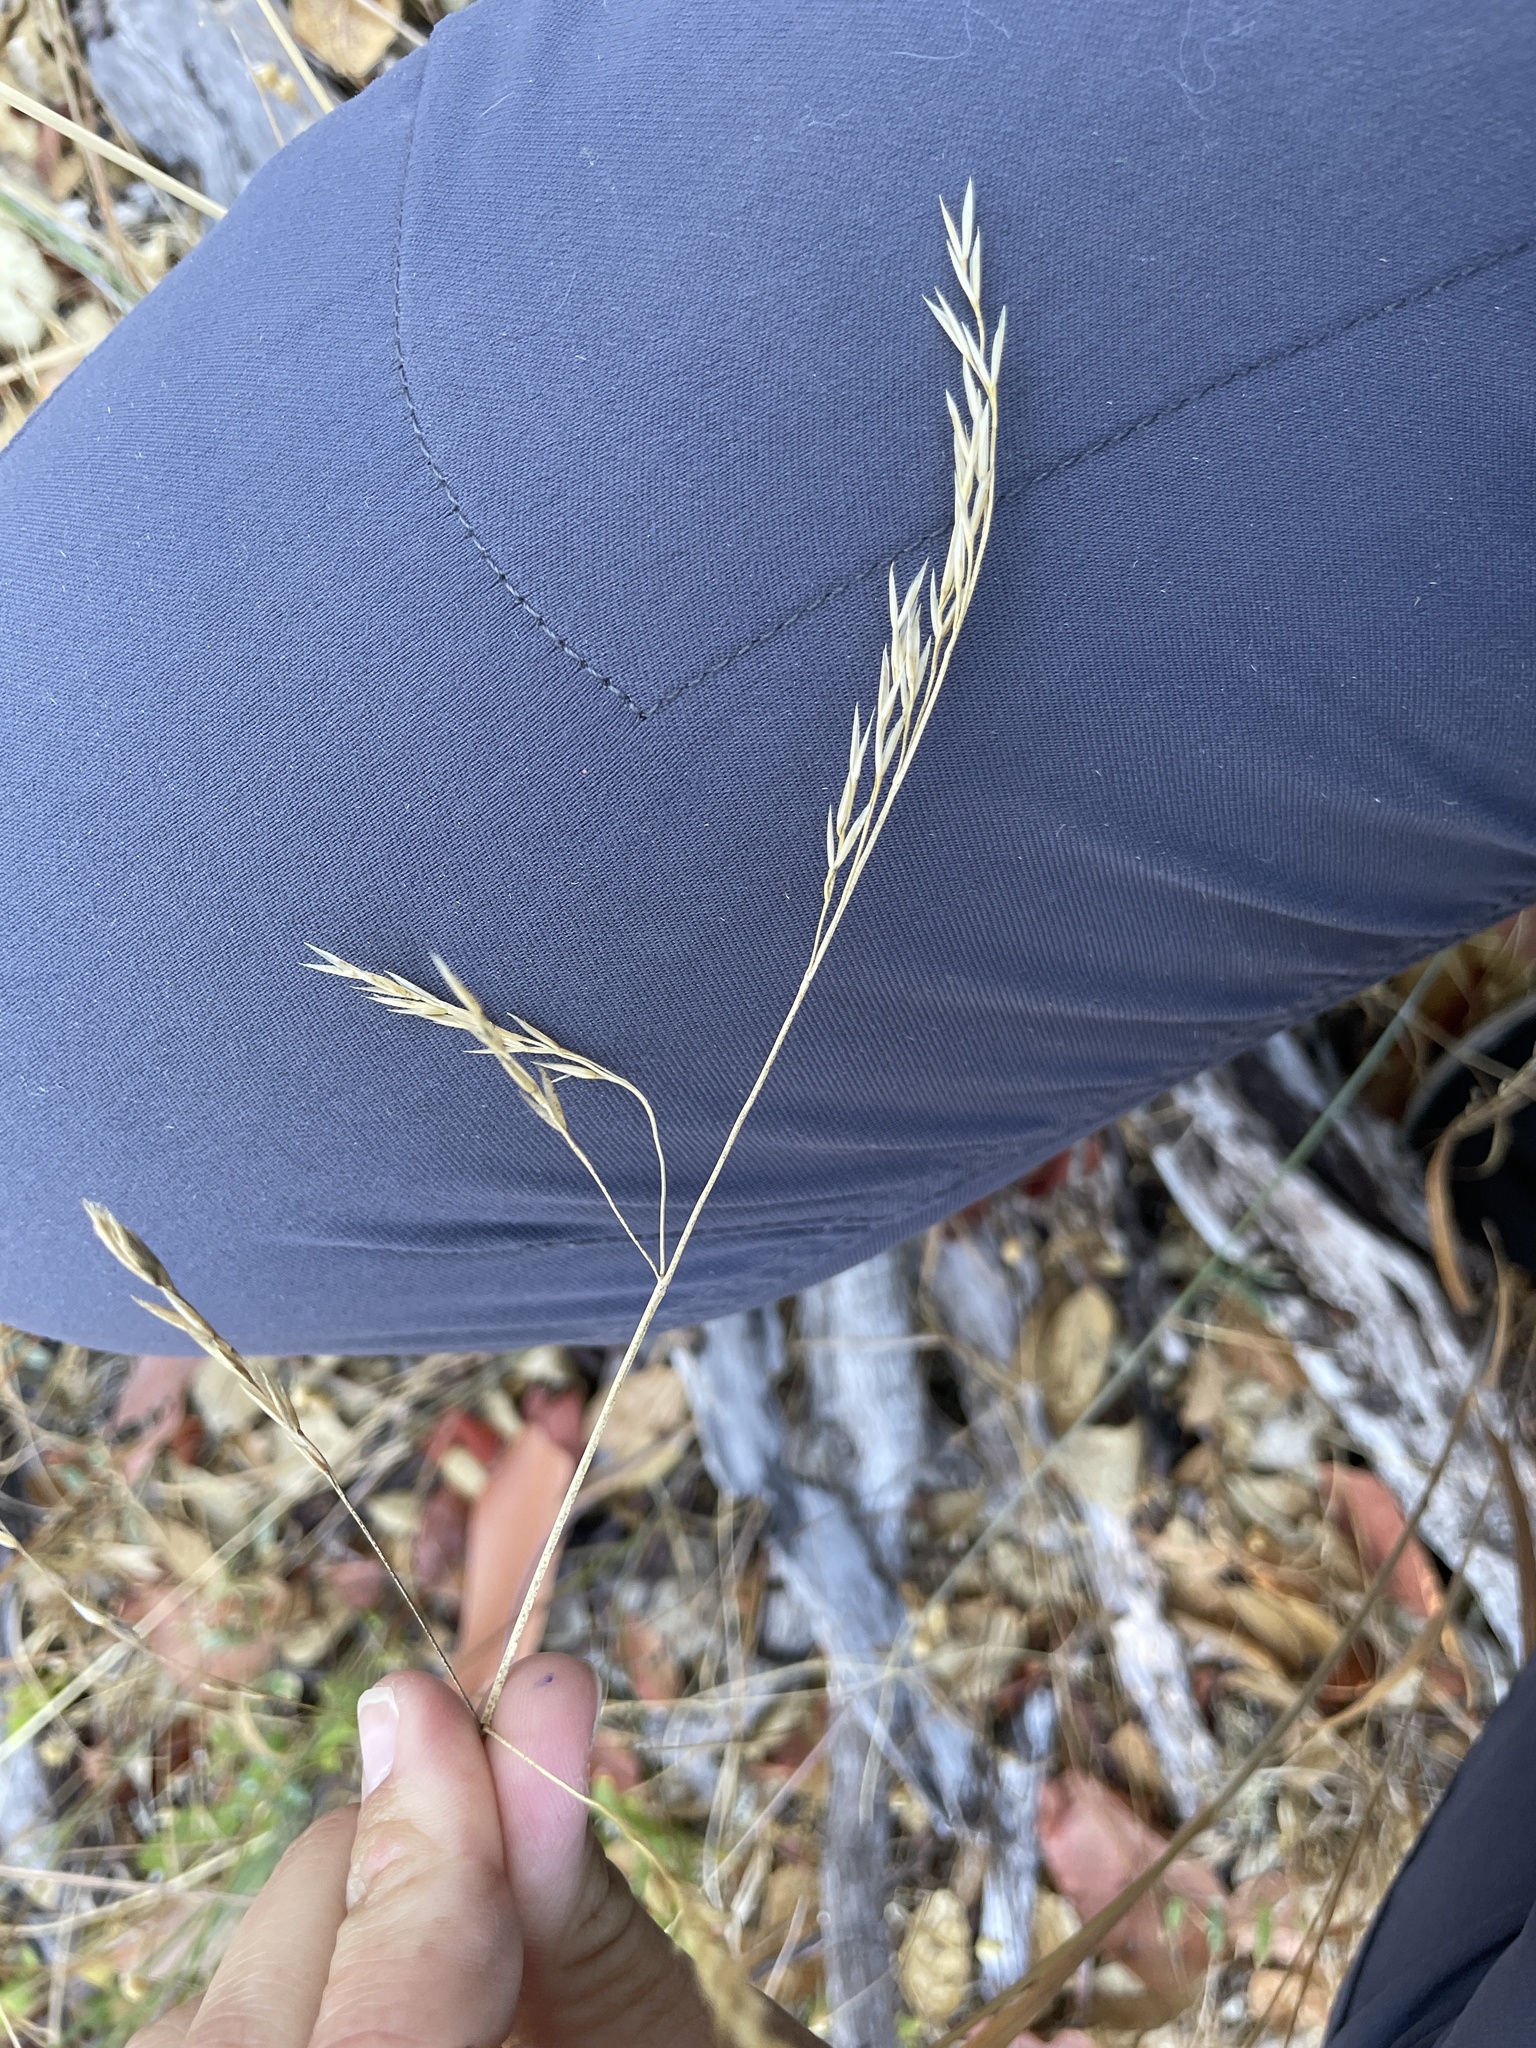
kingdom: Plantae
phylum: Tracheophyta
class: Liliopsida
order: Poales
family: Poaceae
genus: Festuca
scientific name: Festuca californica
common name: California fescue
